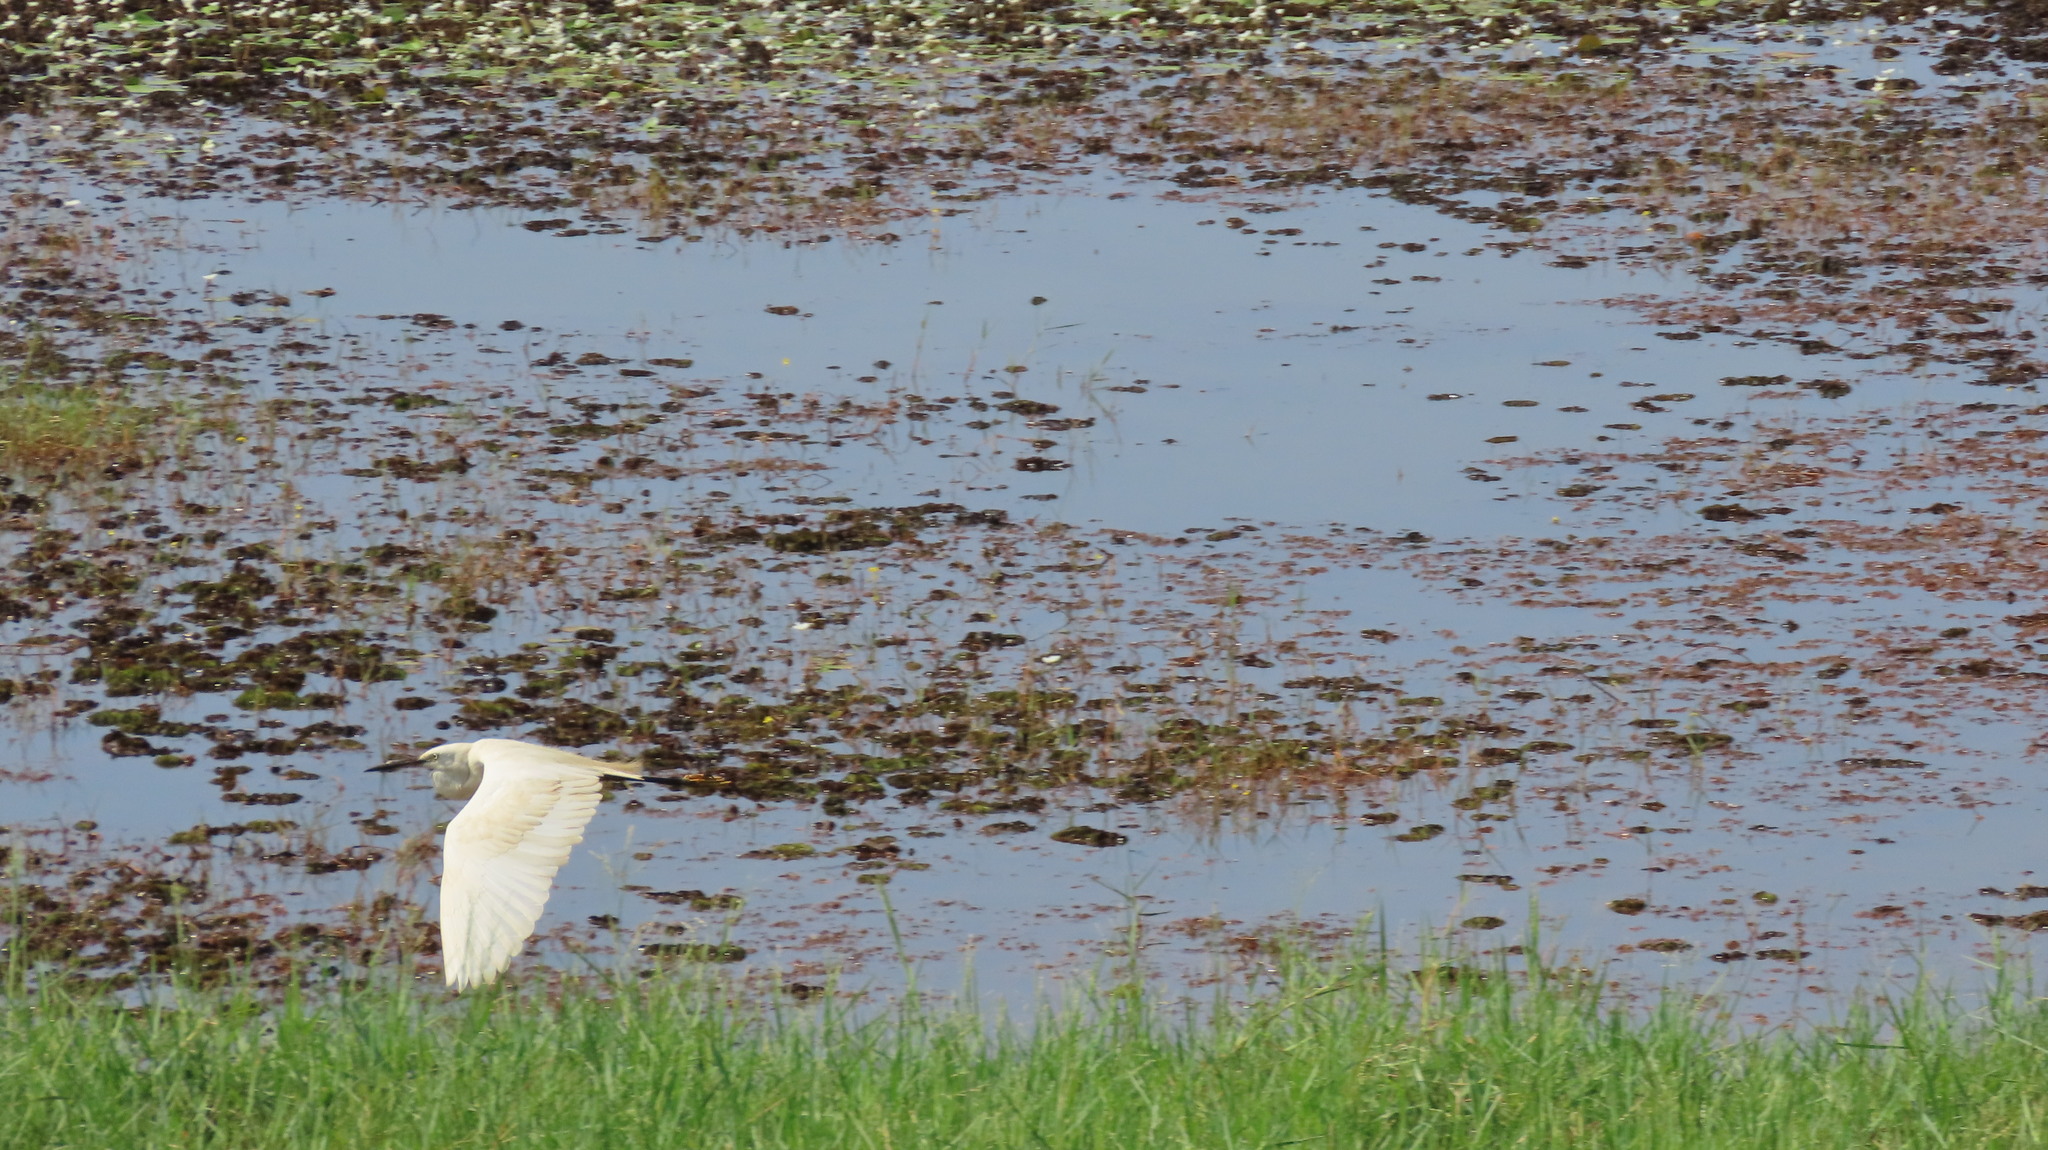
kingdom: Animalia
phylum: Chordata
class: Aves
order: Pelecaniformes
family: Ardeidae
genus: Egretta
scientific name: Egretta garzetta
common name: Little egret
